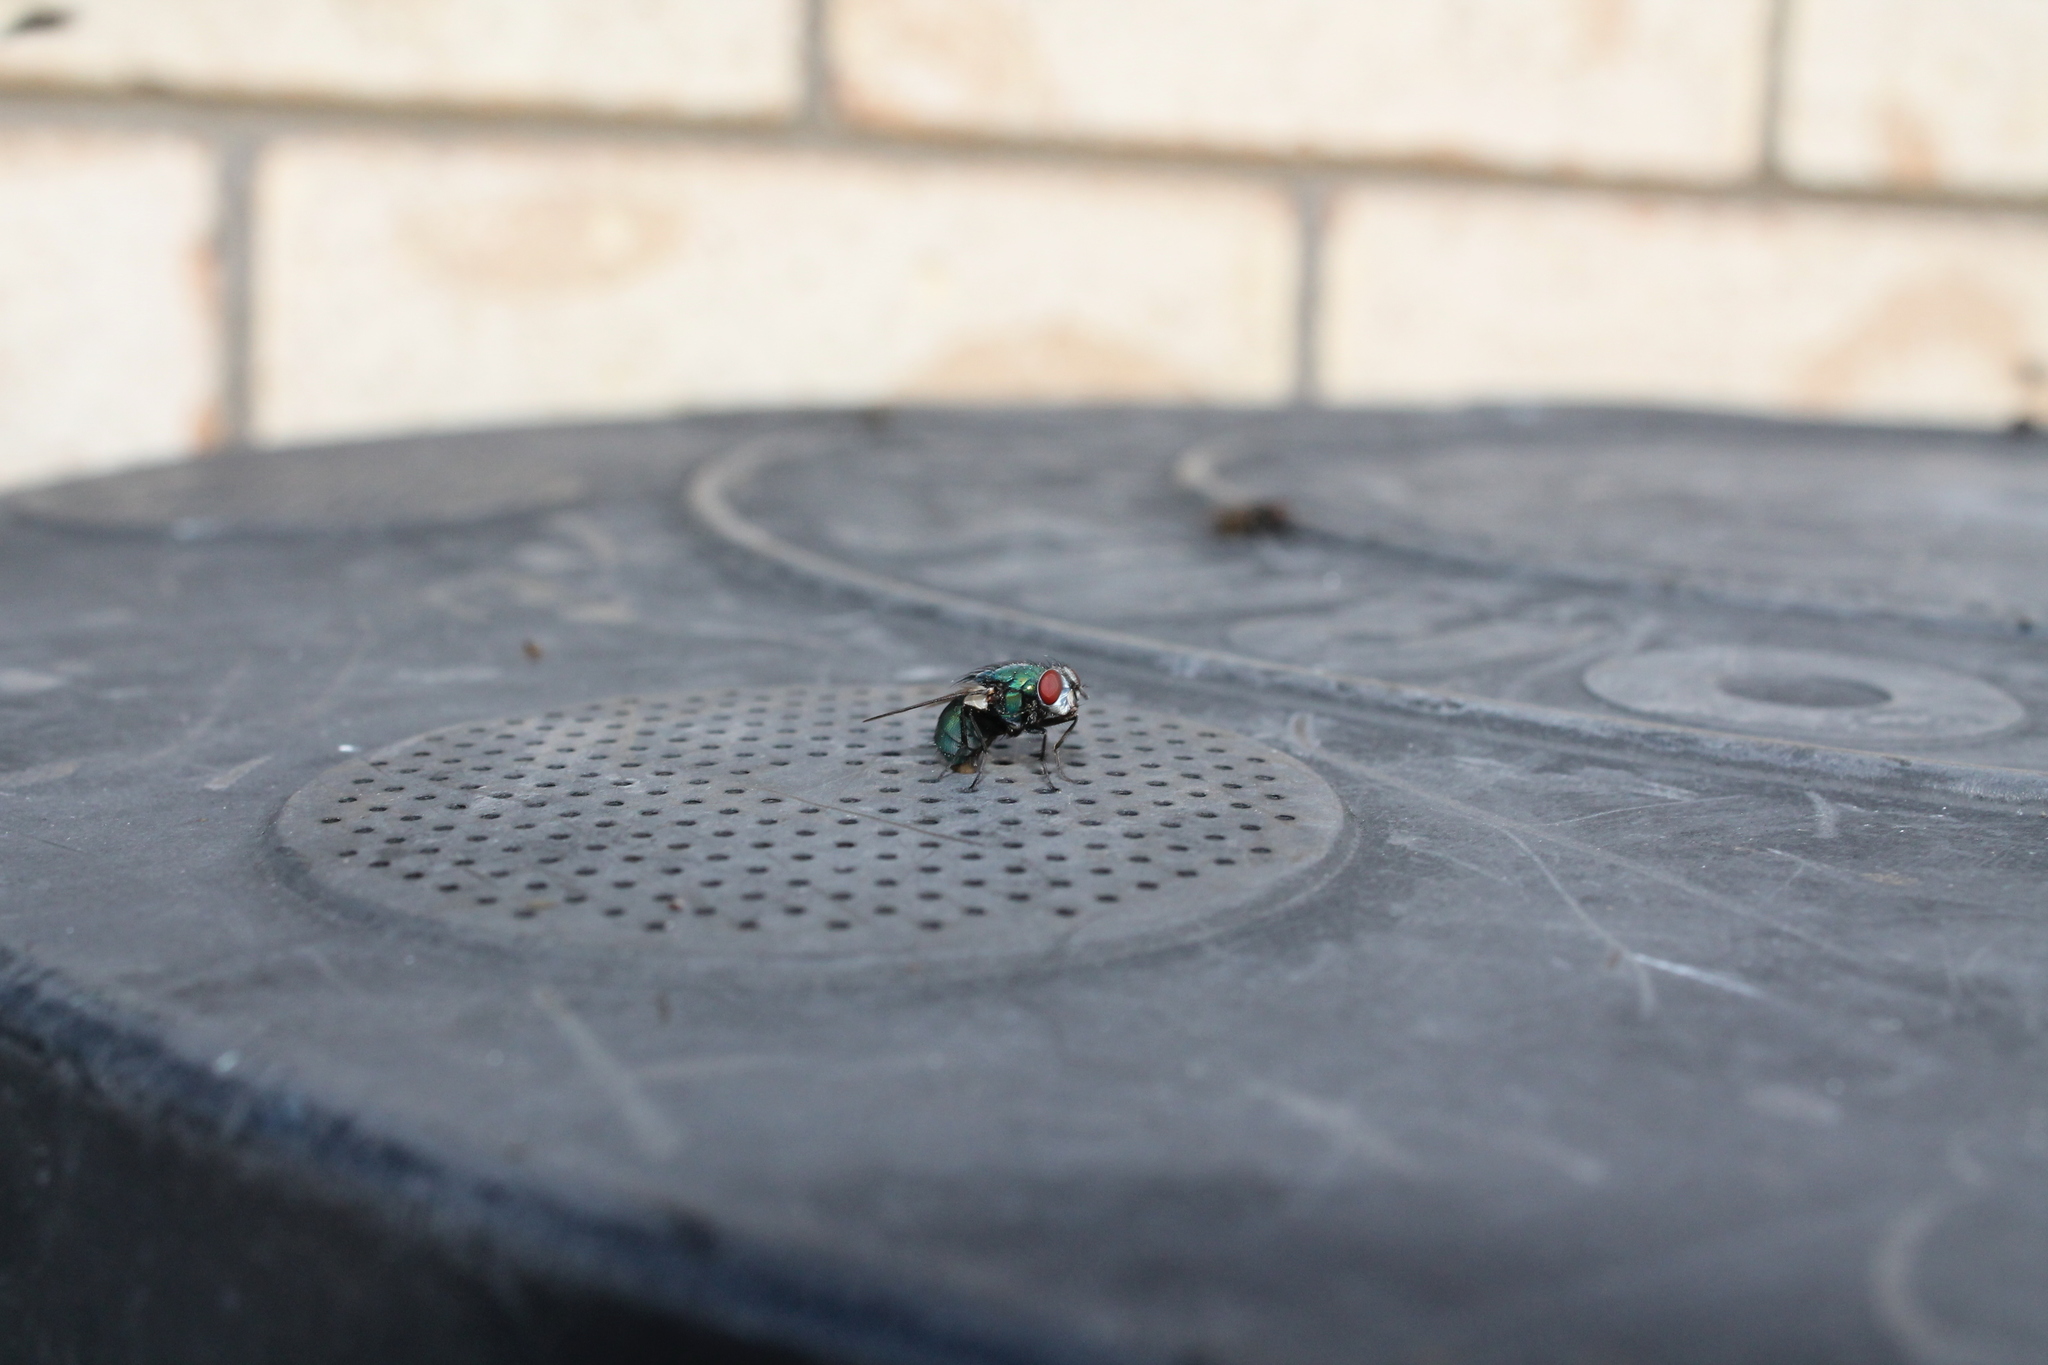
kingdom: Animalia
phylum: Arthropoda
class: Insecta
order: Diptera
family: Calliphoridae
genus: Lucilia
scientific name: Lucilia sericata
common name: Blow fly
